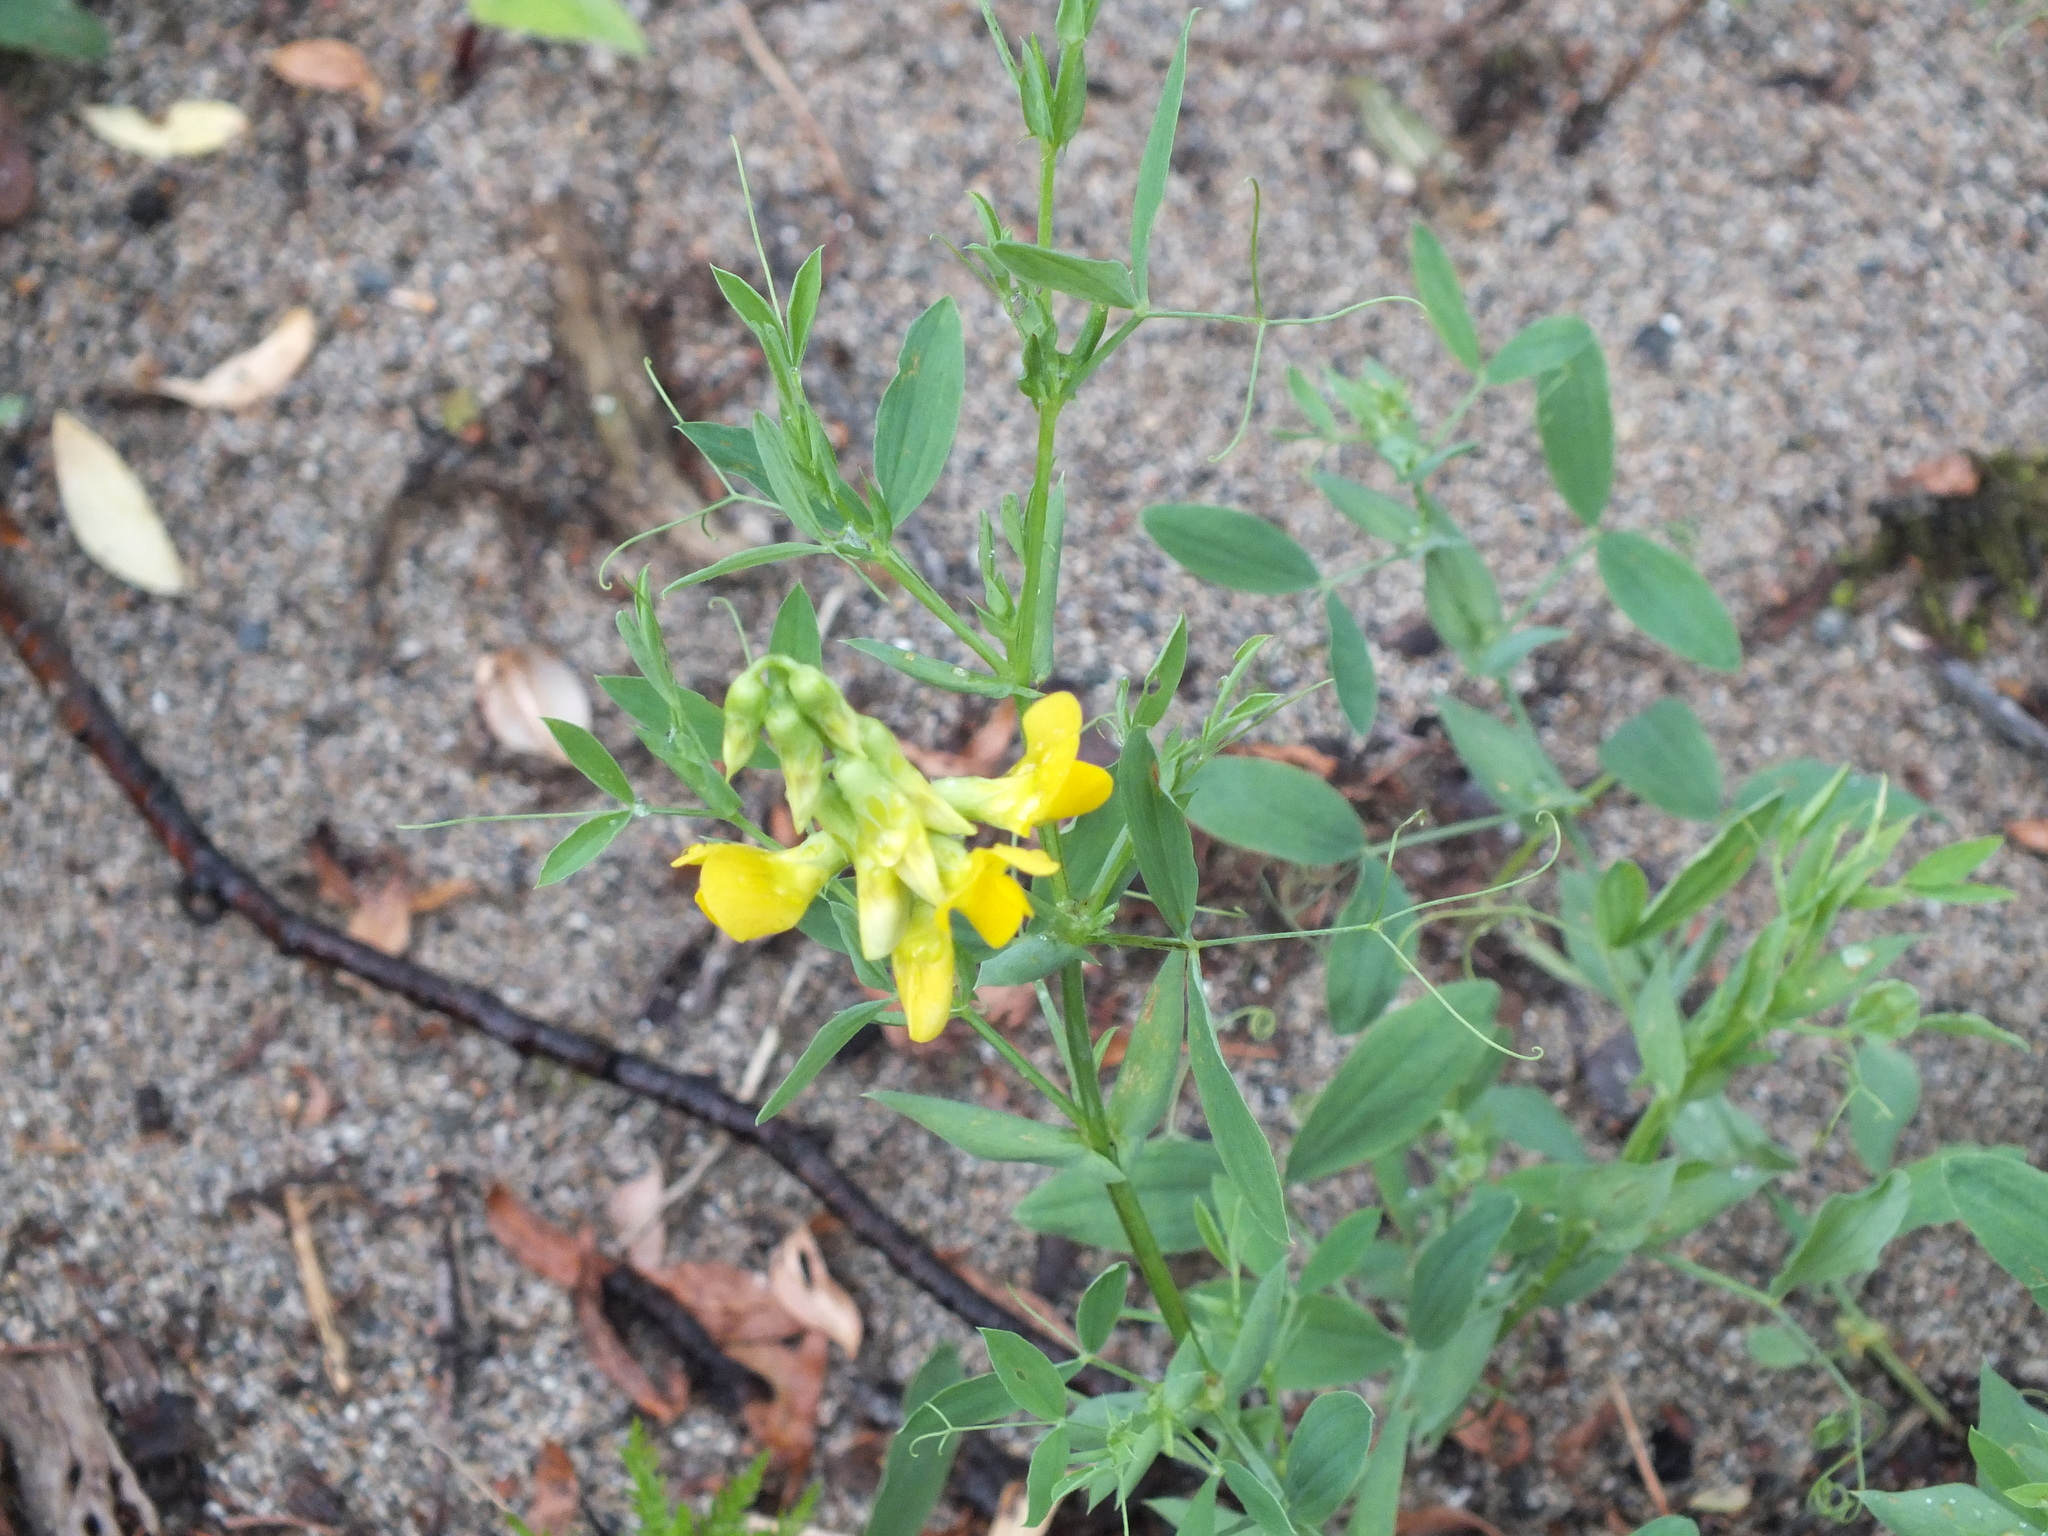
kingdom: Plantae
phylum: Tracheophyta
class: Magnoliopsida
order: Fabales
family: Fabaceae
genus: Lathyrus
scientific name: Lathyrus pratensis
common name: Meadow vetchling
